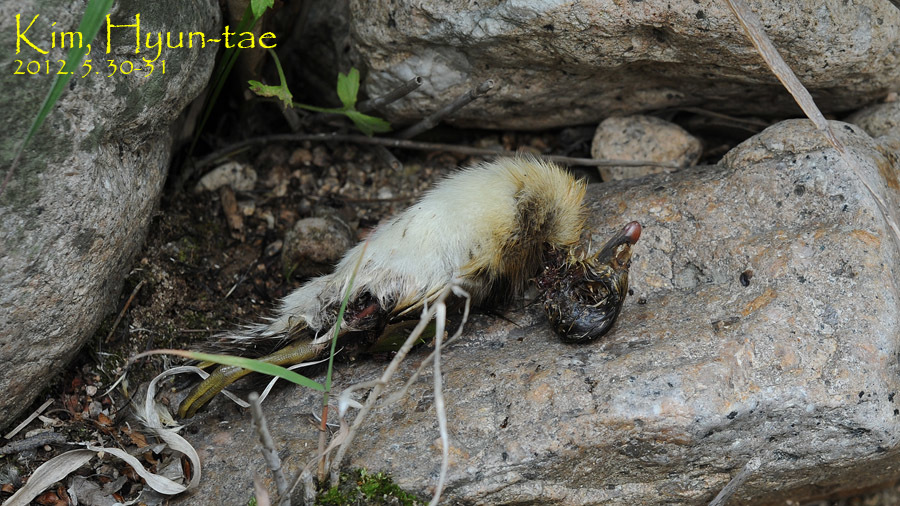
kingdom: Animalia
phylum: Chordata
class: Aves
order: Anseriformes
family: Anatidae
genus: Aix
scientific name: Aix galericulata
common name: Mandarin duck
